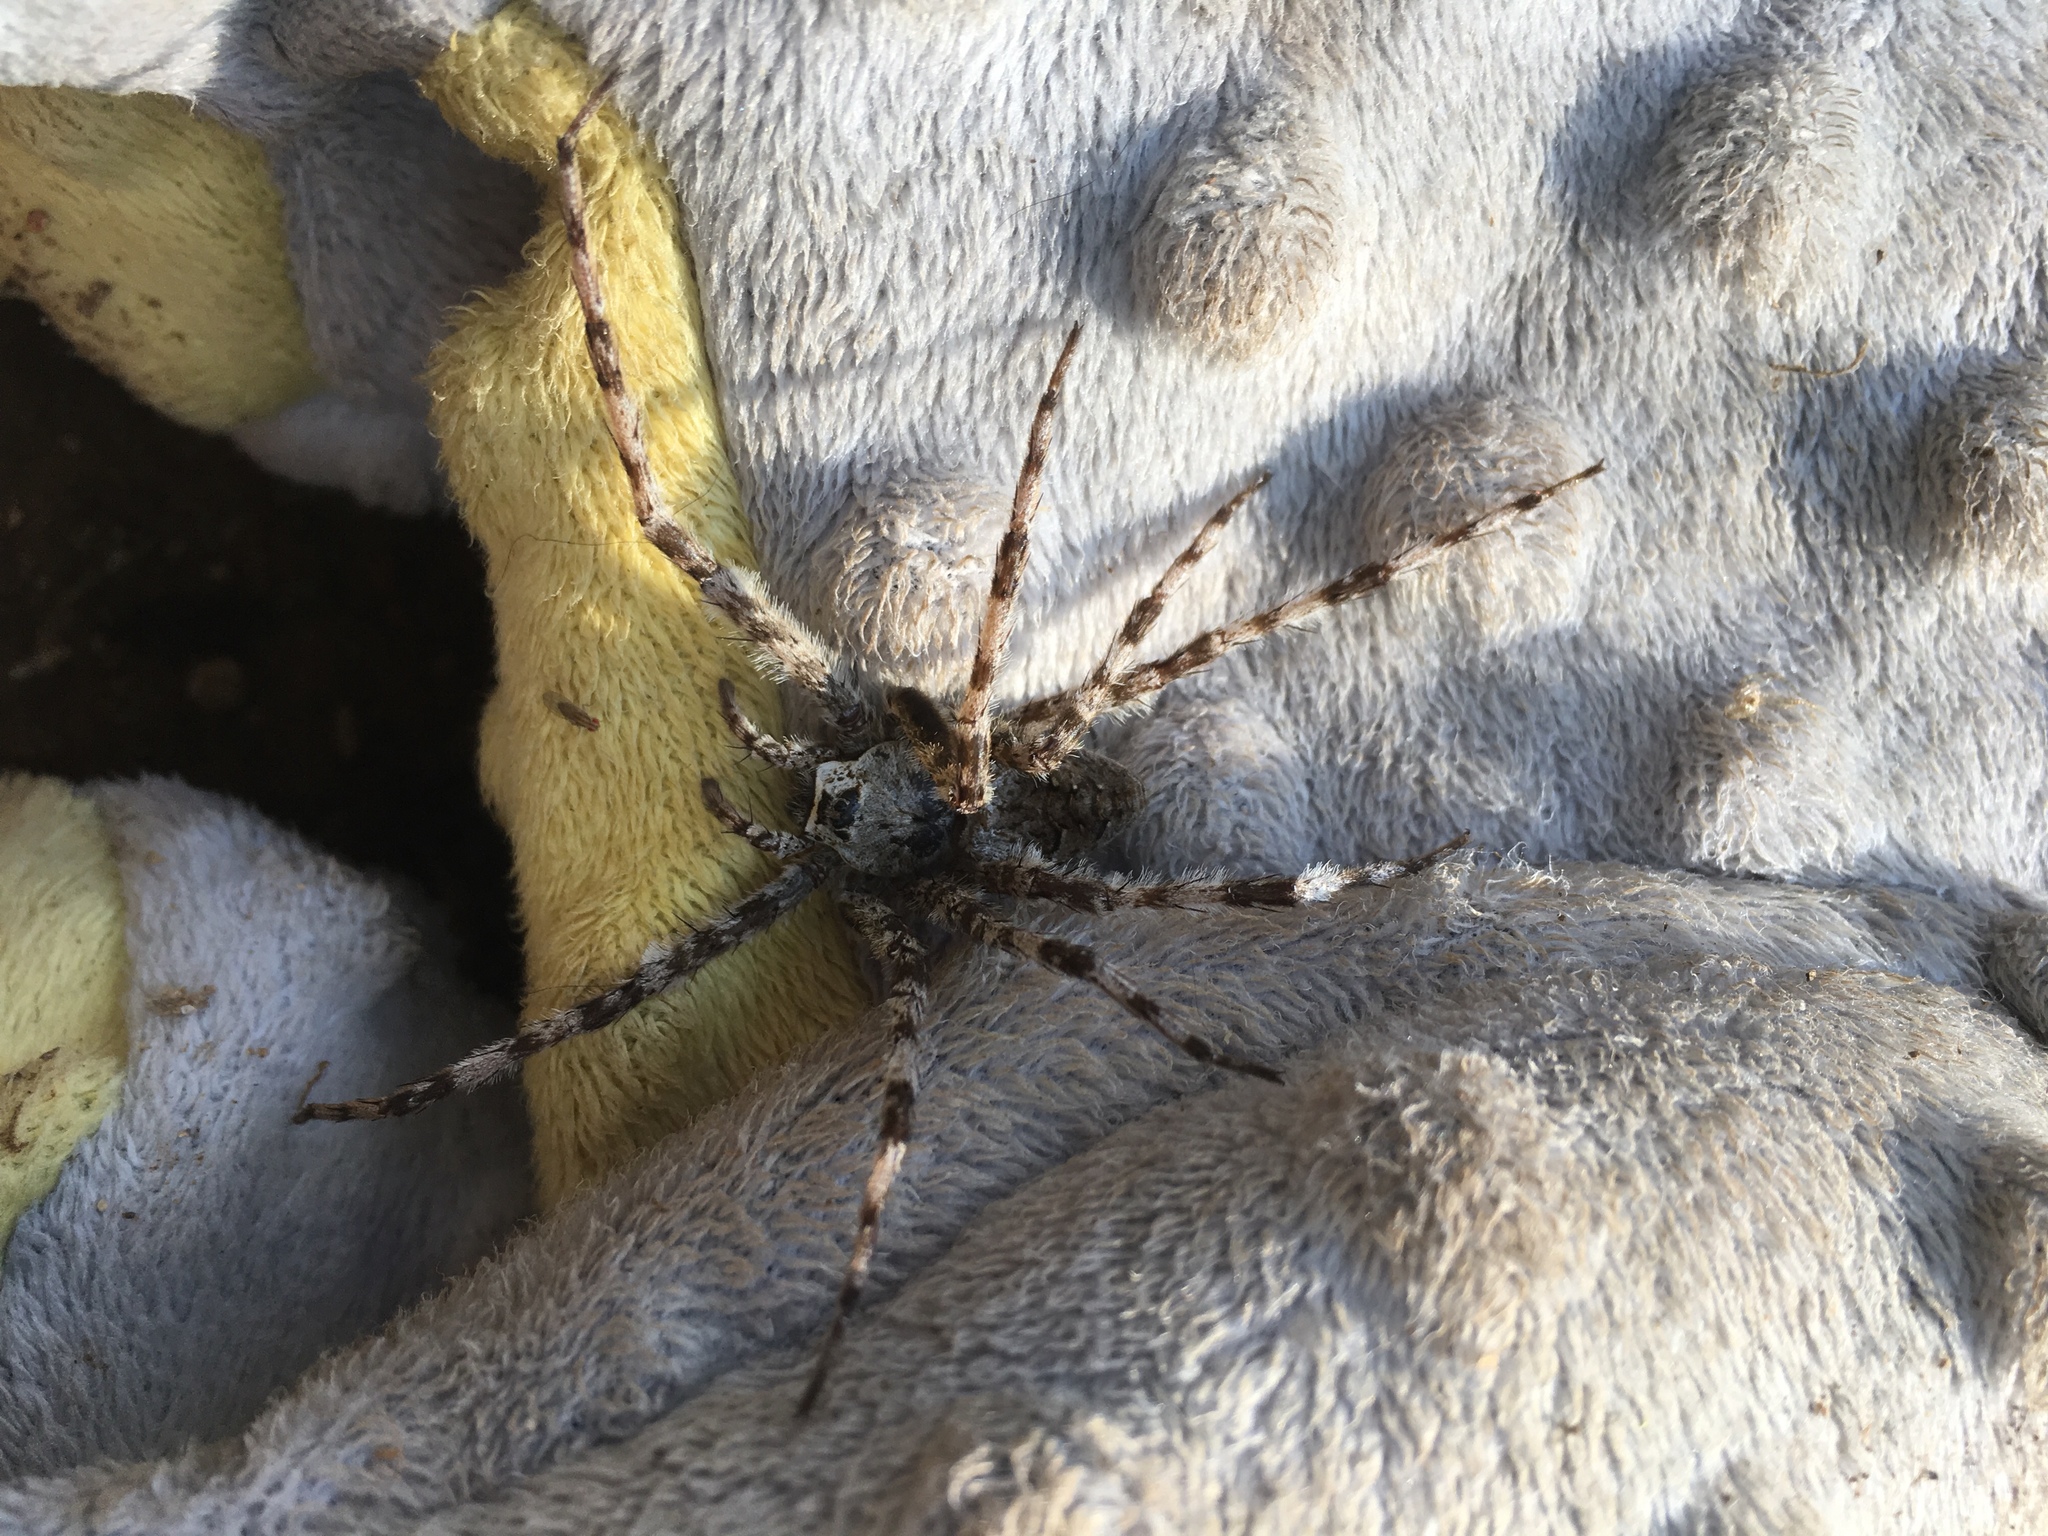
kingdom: Animalia
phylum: Arthropoda
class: Arachnida
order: Araneae
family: Pisauridae
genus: Dolomedes
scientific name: Dolomedes albineus
